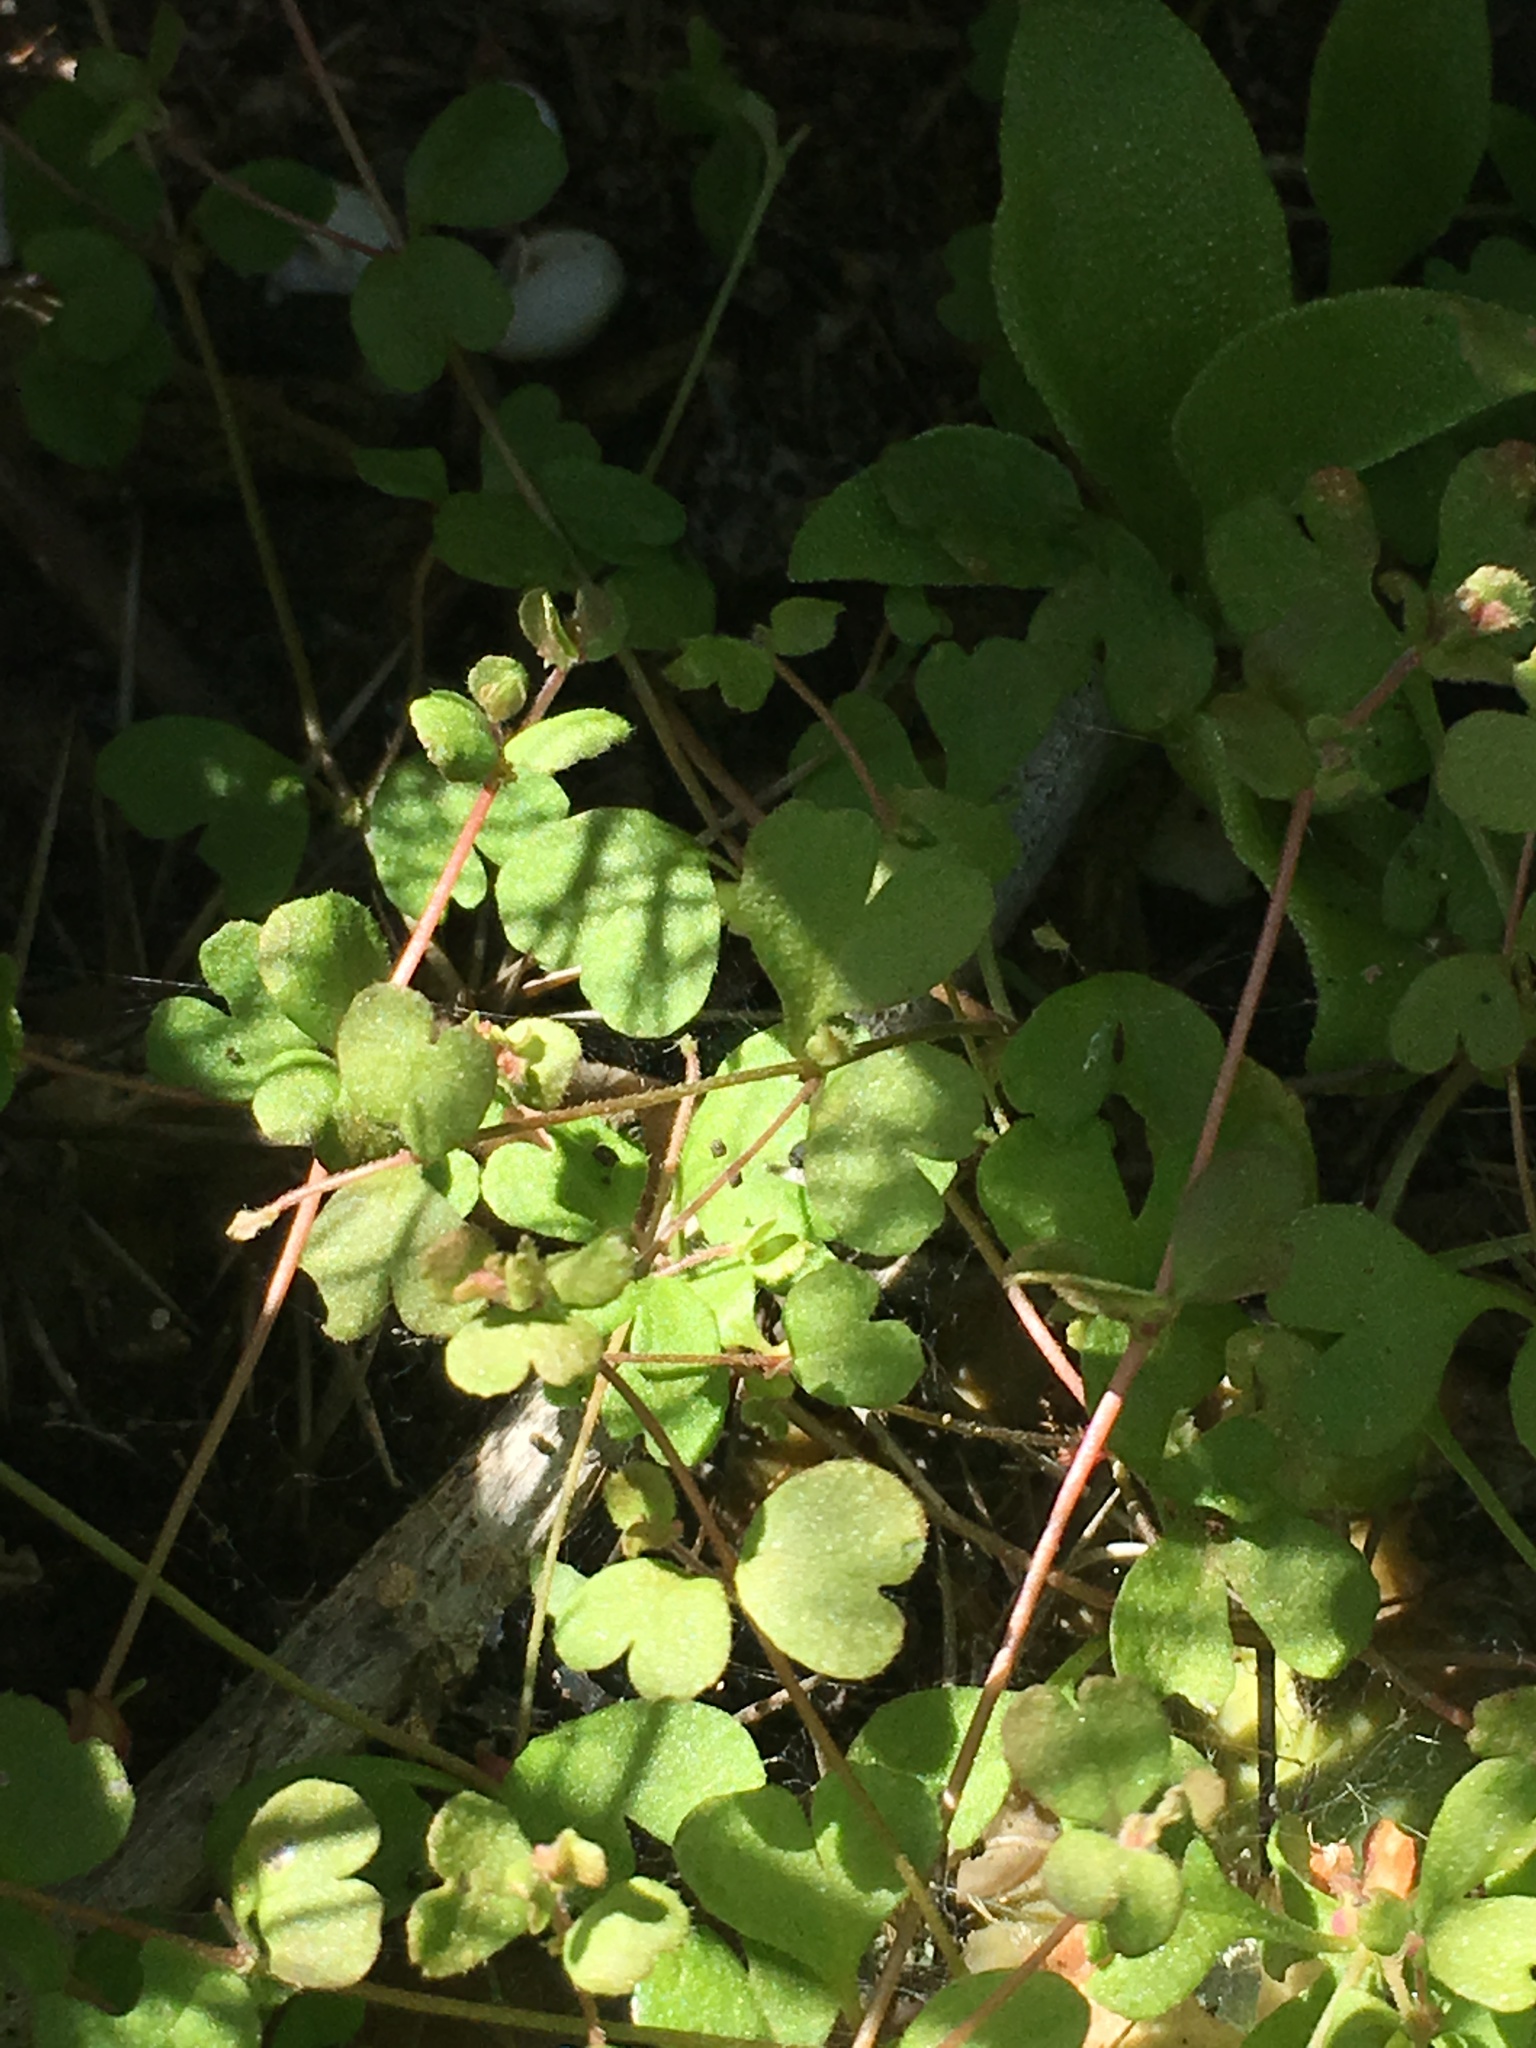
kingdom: Plantae
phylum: Tracheophyta
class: Magnoliopsida
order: Caryophyllales
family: Polygonaceae
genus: Pterostegia
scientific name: Pterostegia drymarioides
